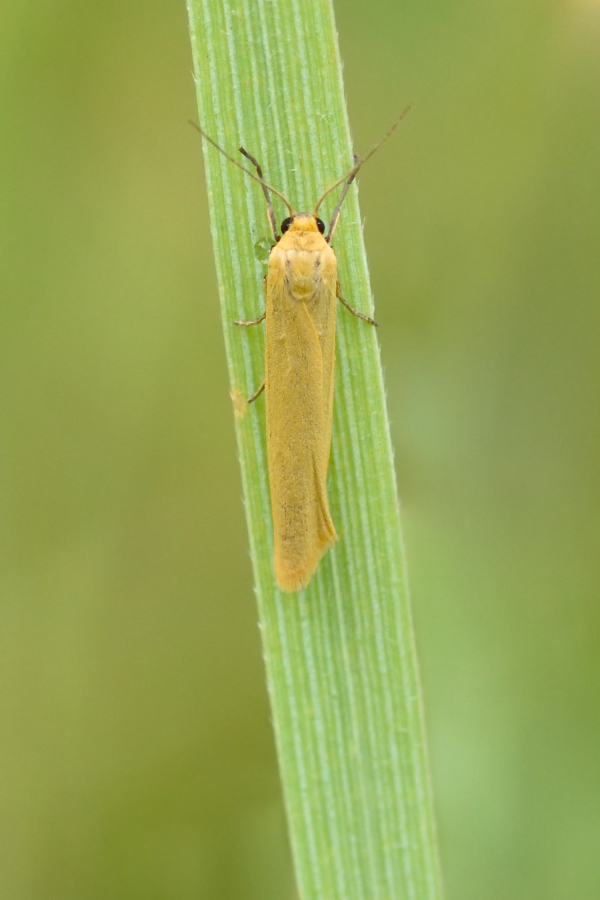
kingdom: Animalia
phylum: Arthropoda
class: Insecta
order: Lepidoptera
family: Erebidae
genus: Indalia
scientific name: Indalia lutarella
